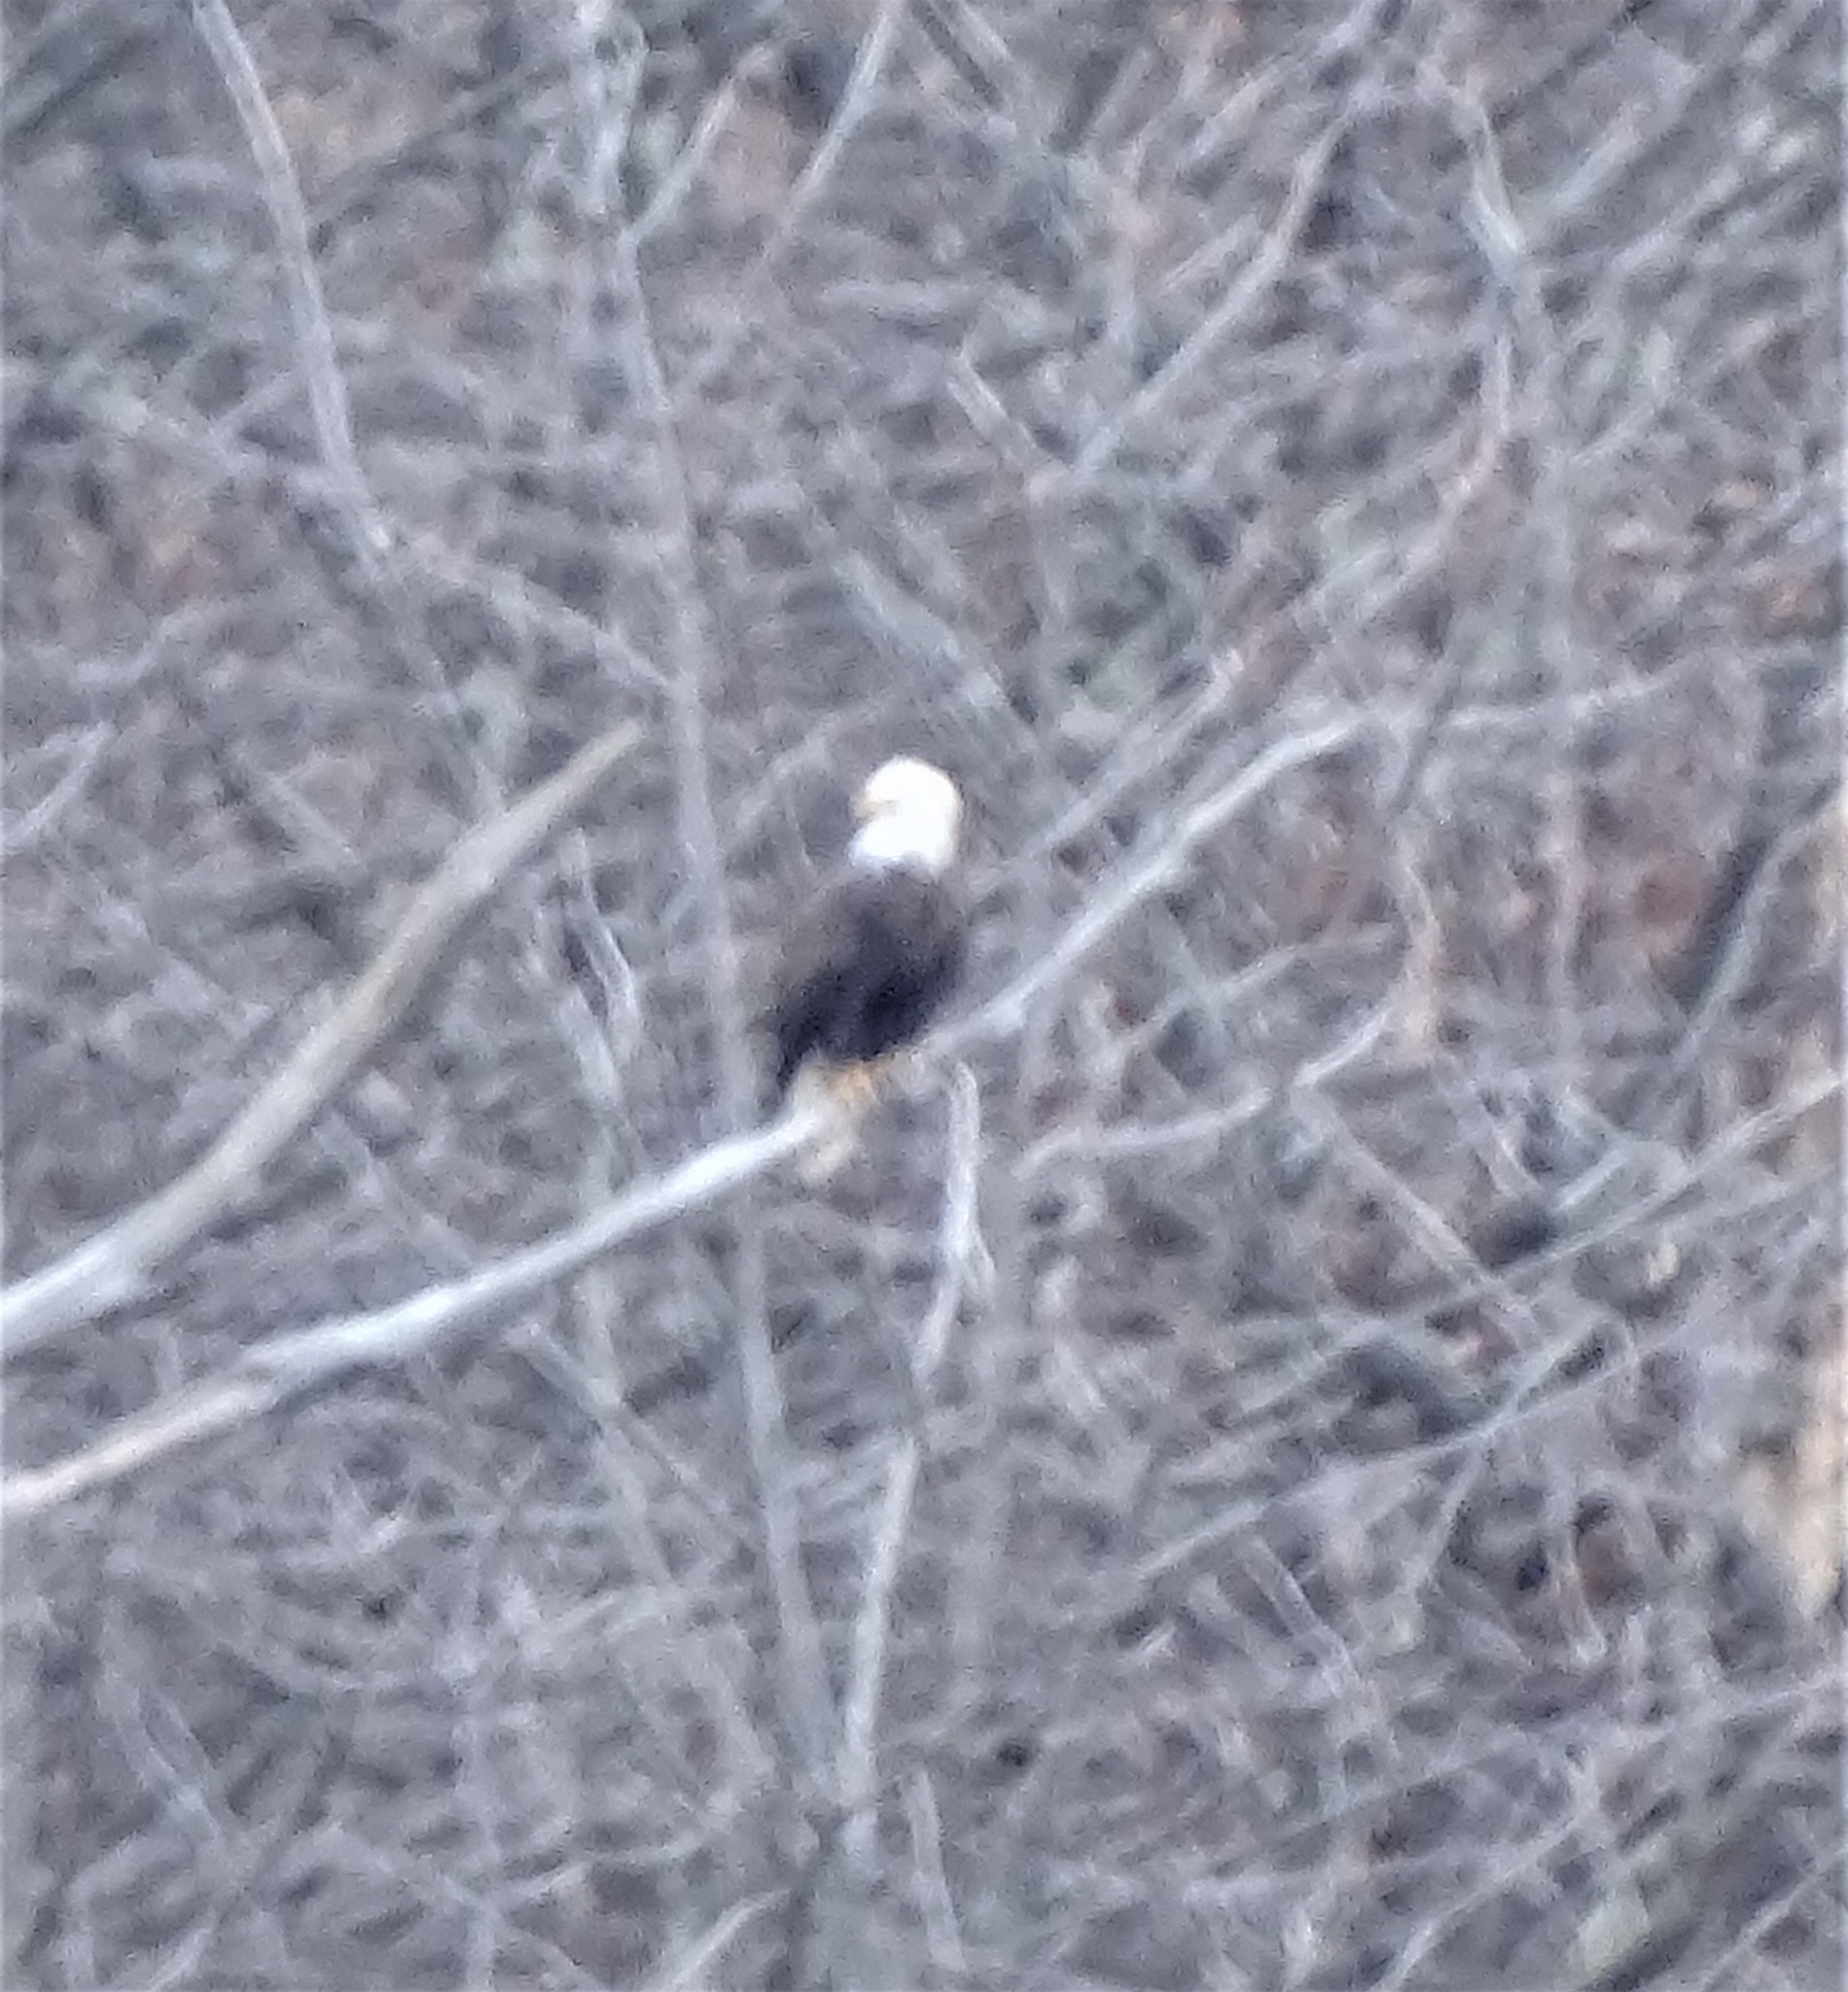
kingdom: Animalia
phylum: Chordata
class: Aves
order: Accipitriformes
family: Accipitridae
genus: Haliaeetus
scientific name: Haliaeetus leucocephalus
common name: Bald eagle
